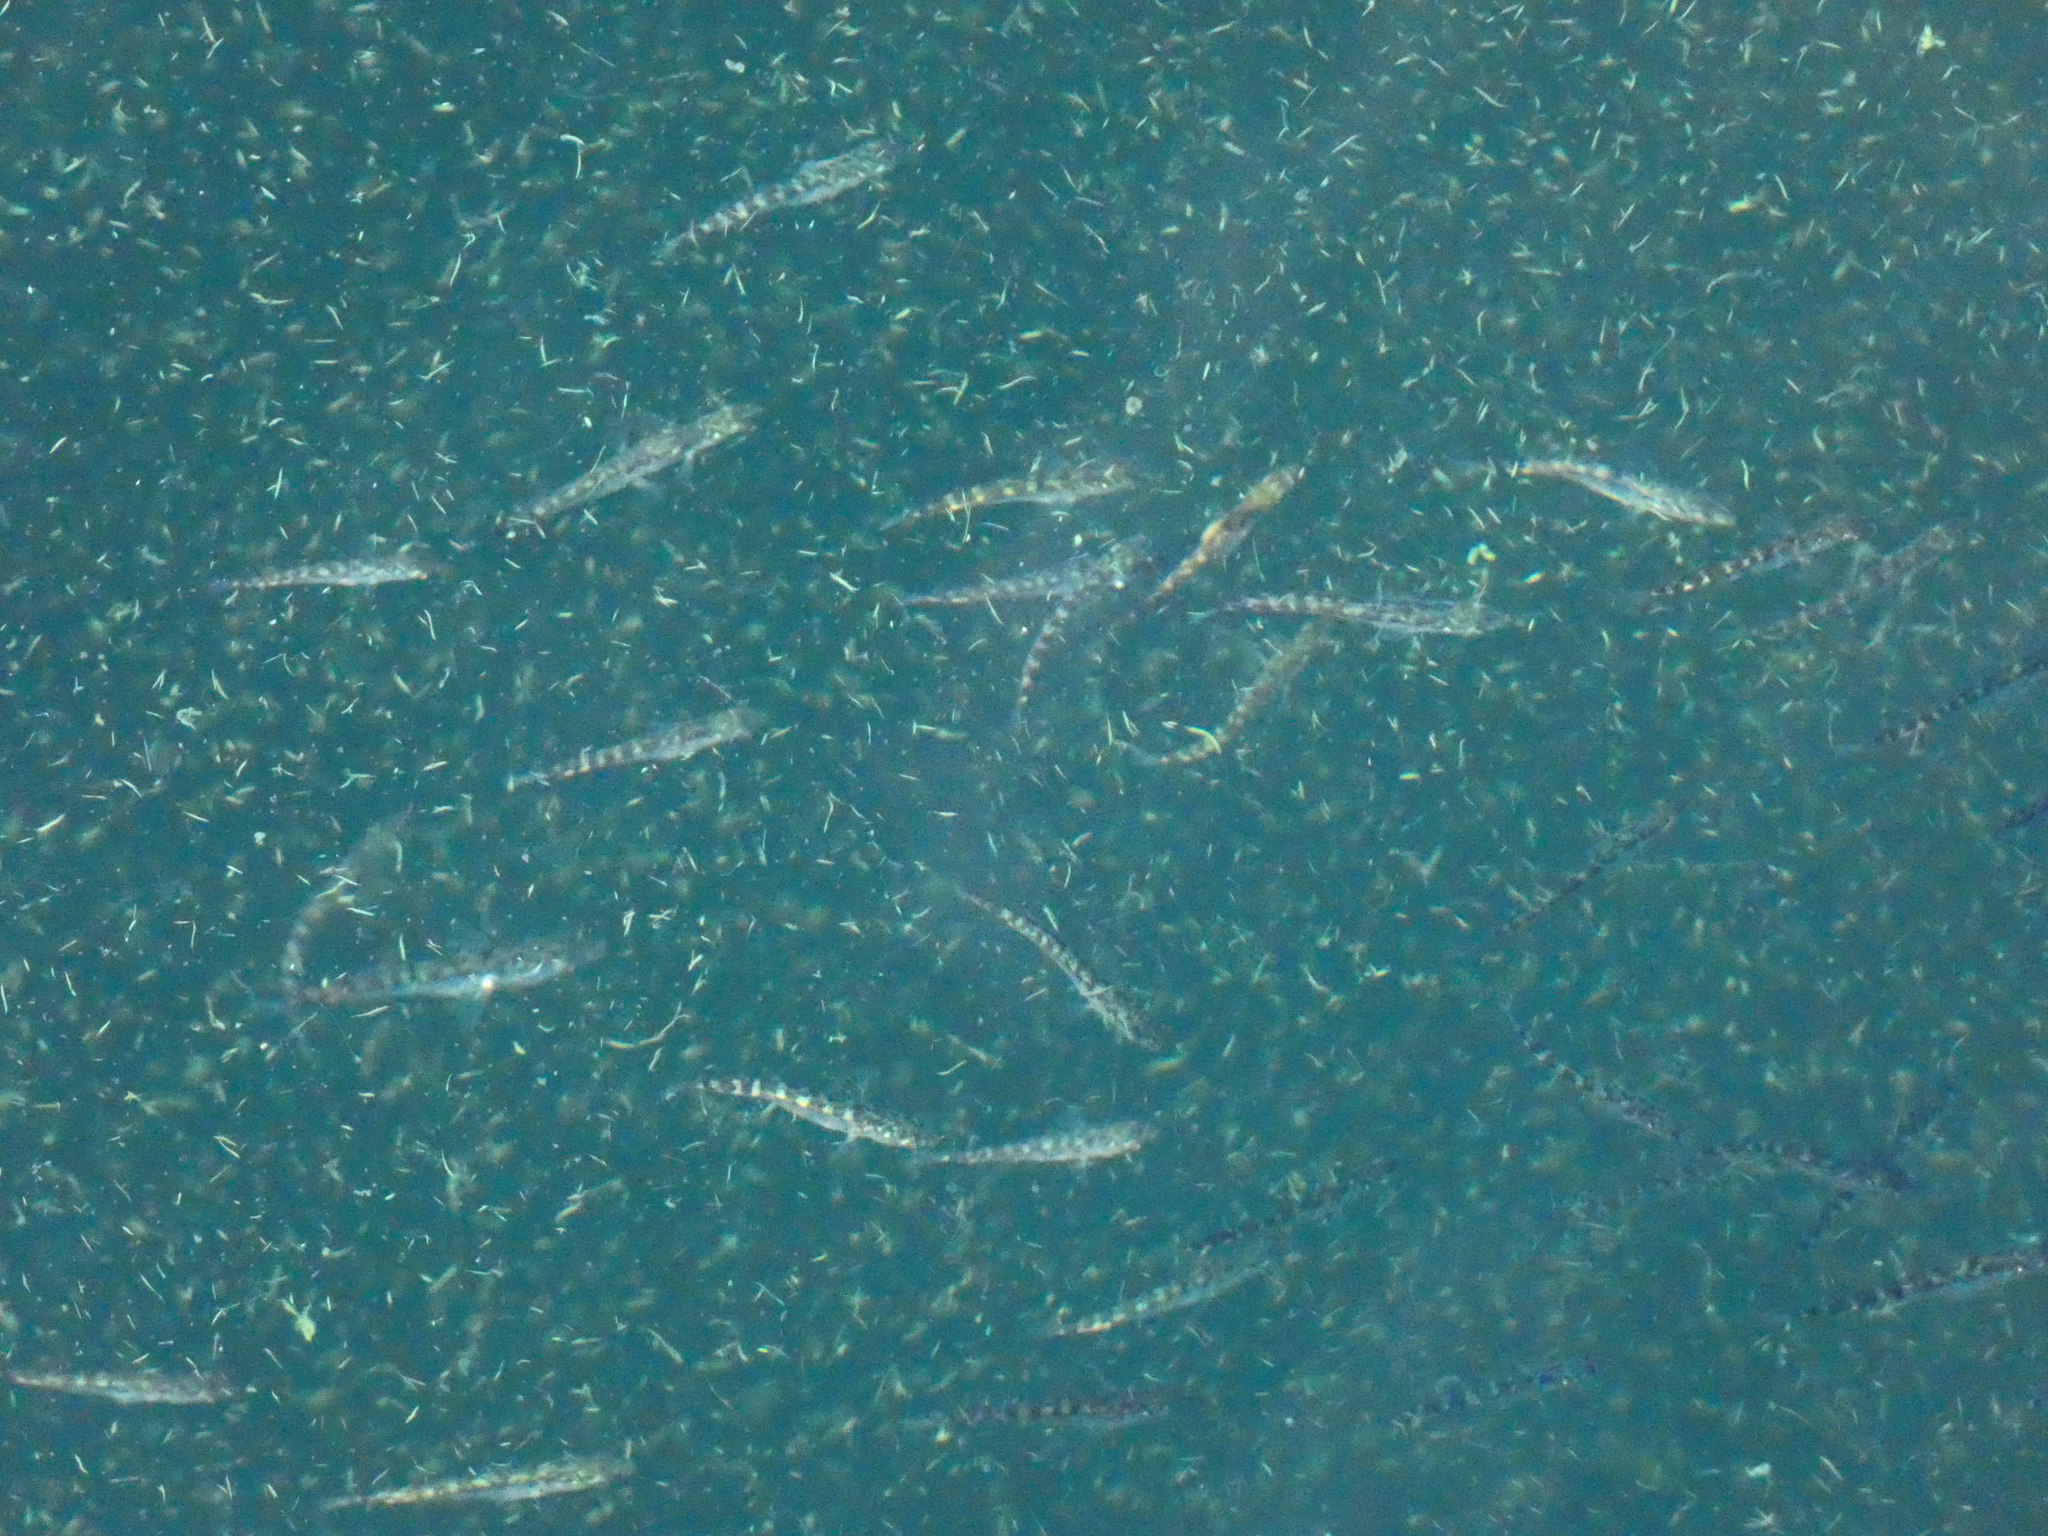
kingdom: Animalia
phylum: Chordata
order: Gasterosteiformes
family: Gasterosteidae
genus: Gasterosteus
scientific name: Gasterosteus aculeatus
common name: Three-spined stickleback
